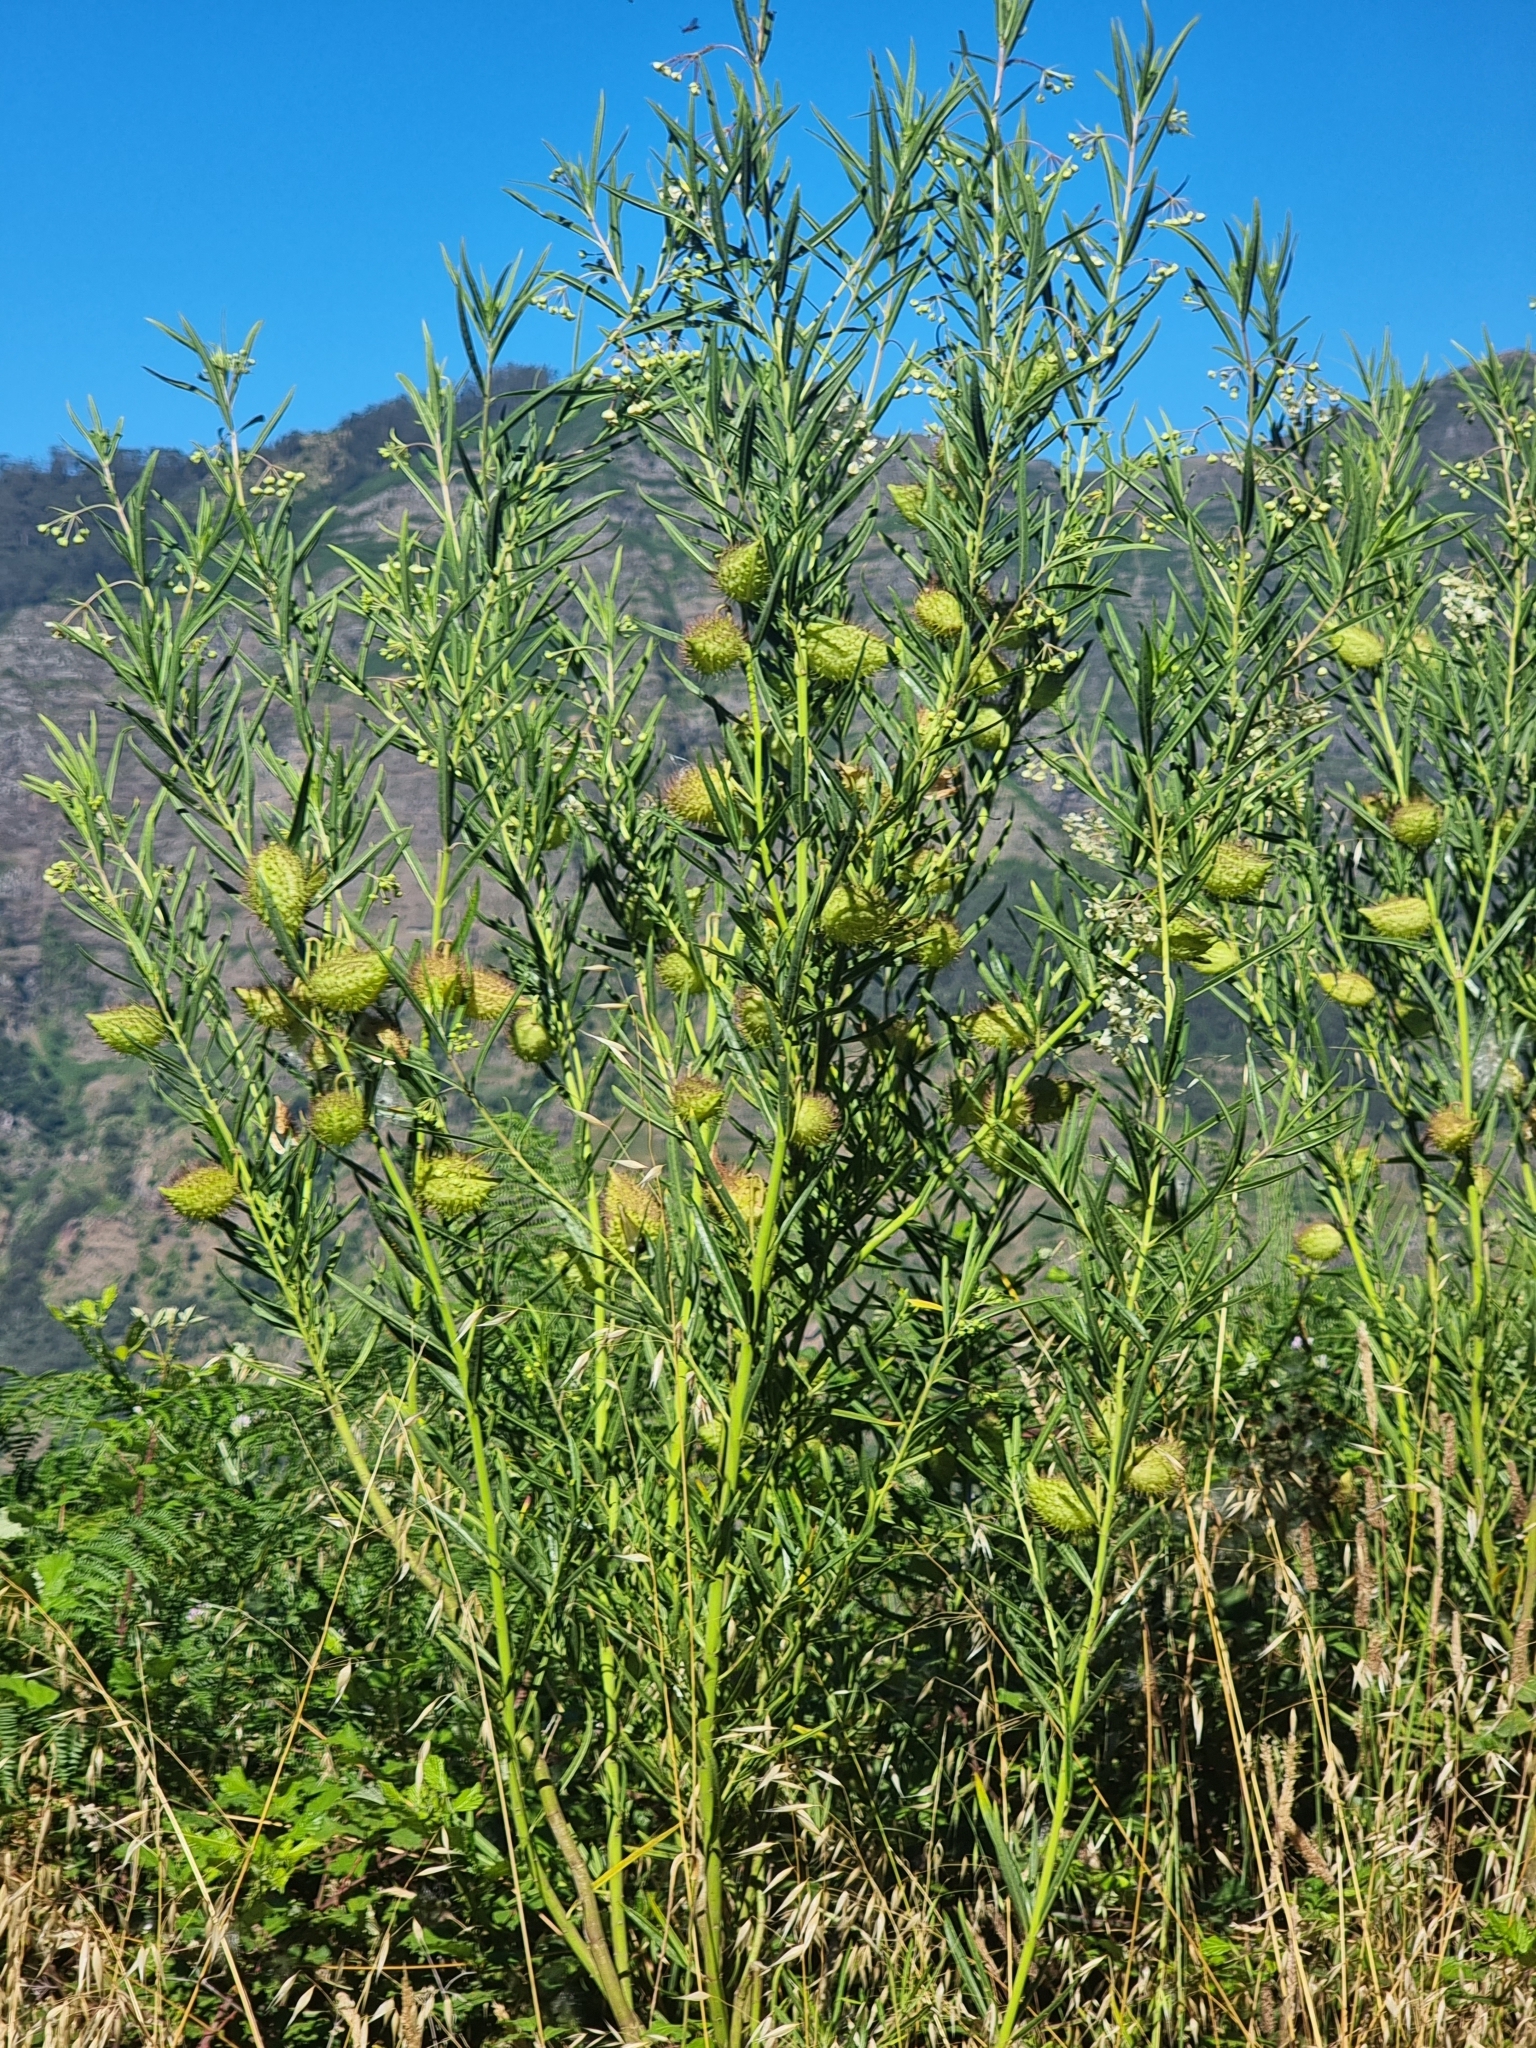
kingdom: Plantae
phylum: Tracheophyta
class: Magnoliopsida
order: Gentianales
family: Apocynaceae
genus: Gomphocarpus
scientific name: Gomphocarpus physocarpus
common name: Balloon cotton bush
